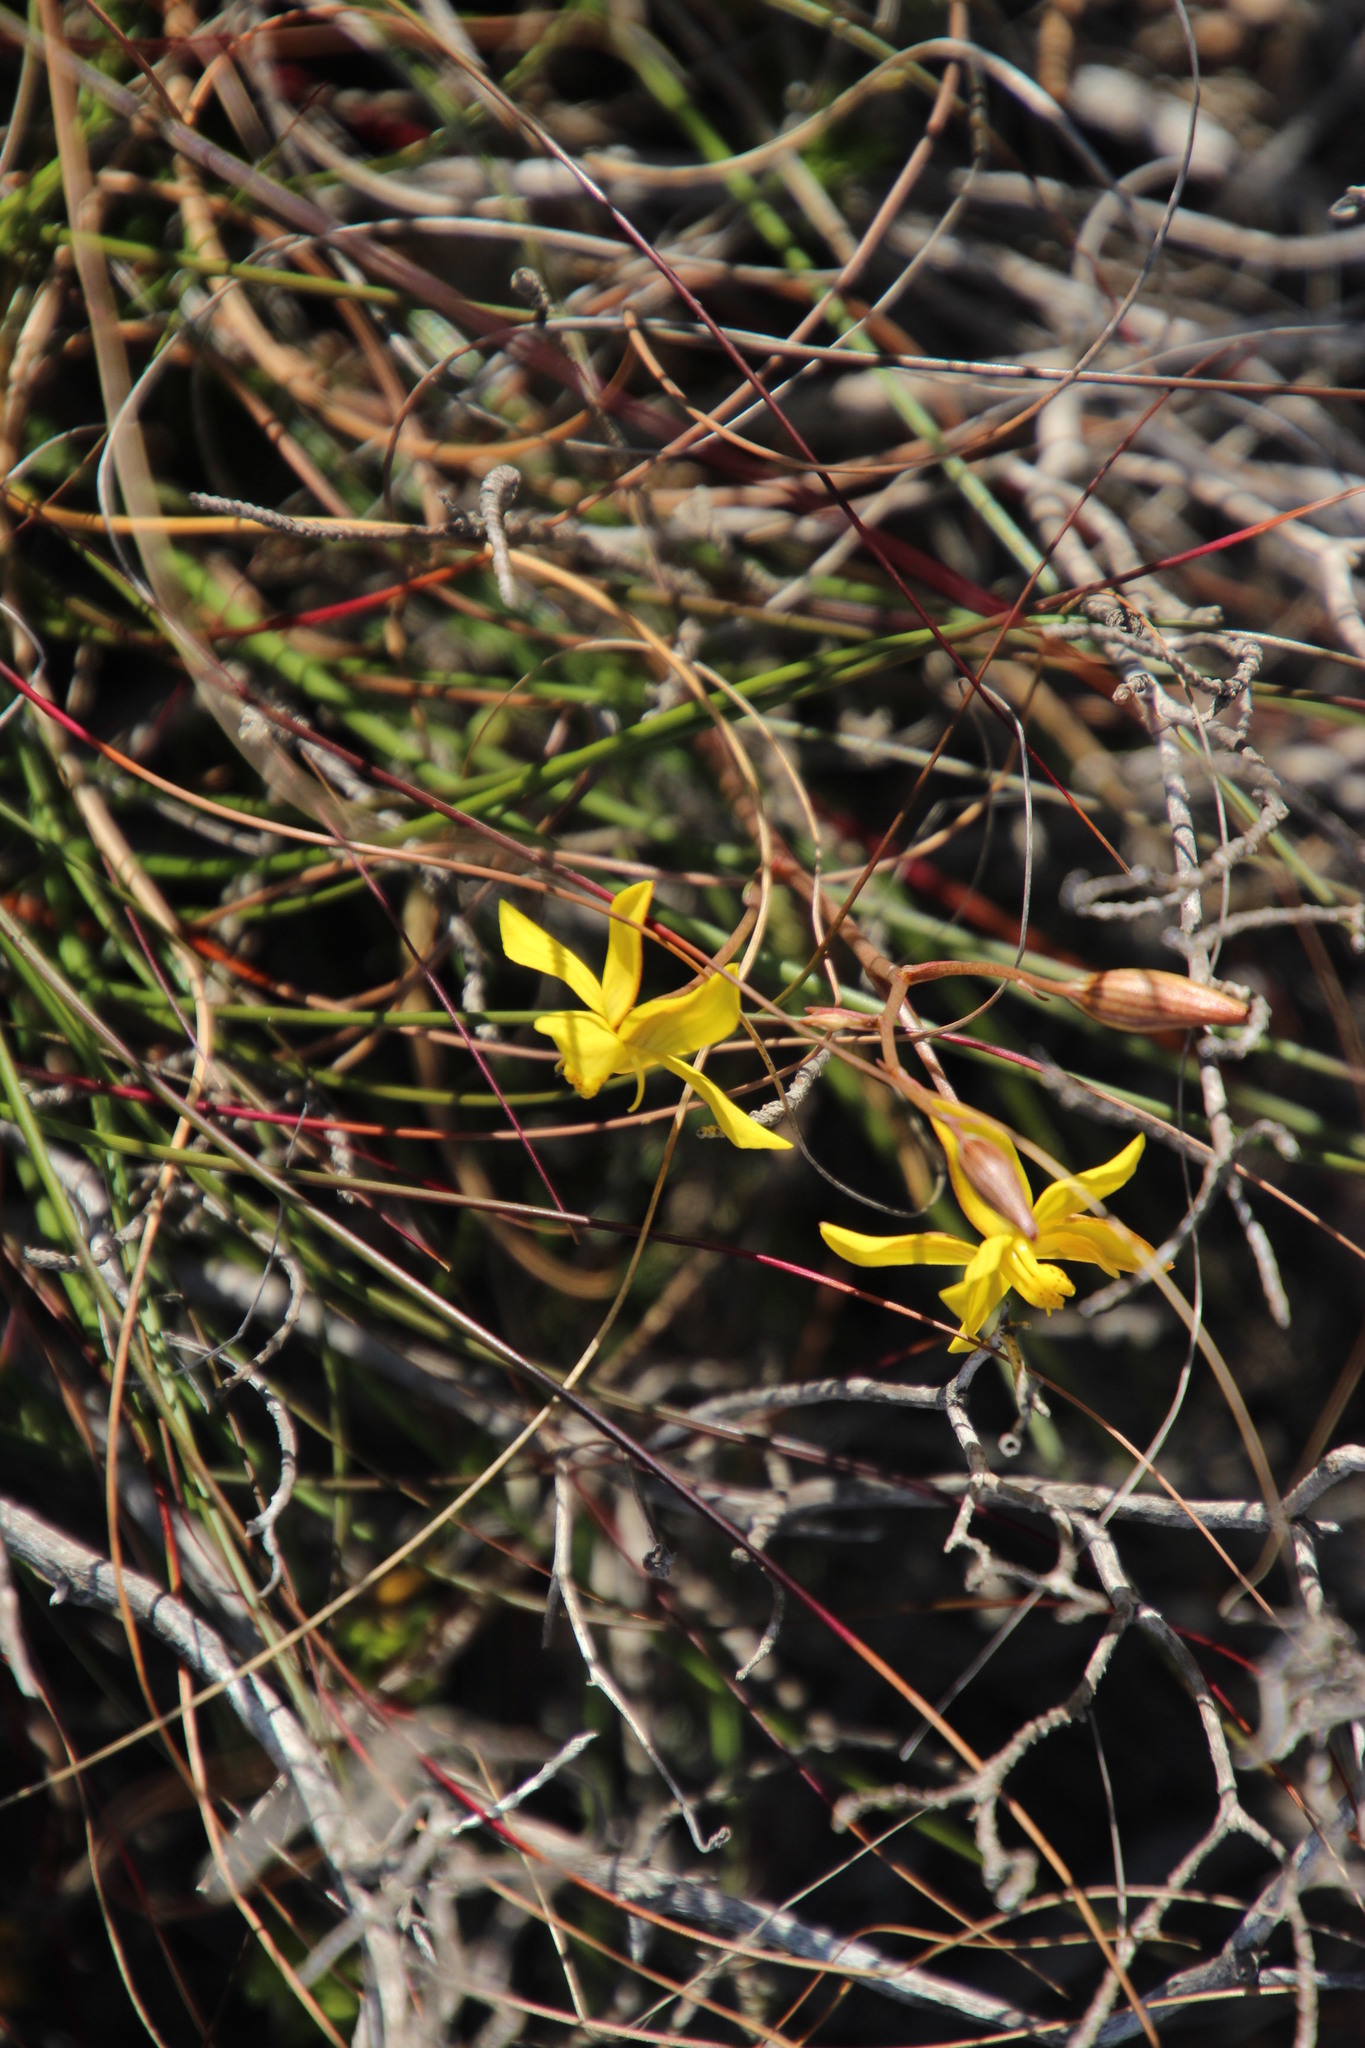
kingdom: Plantae
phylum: Tracheophyta
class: Liliopsida
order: Asparagales
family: Tecophilaeaceae
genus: Cyanella
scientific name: Cyanella lutea
